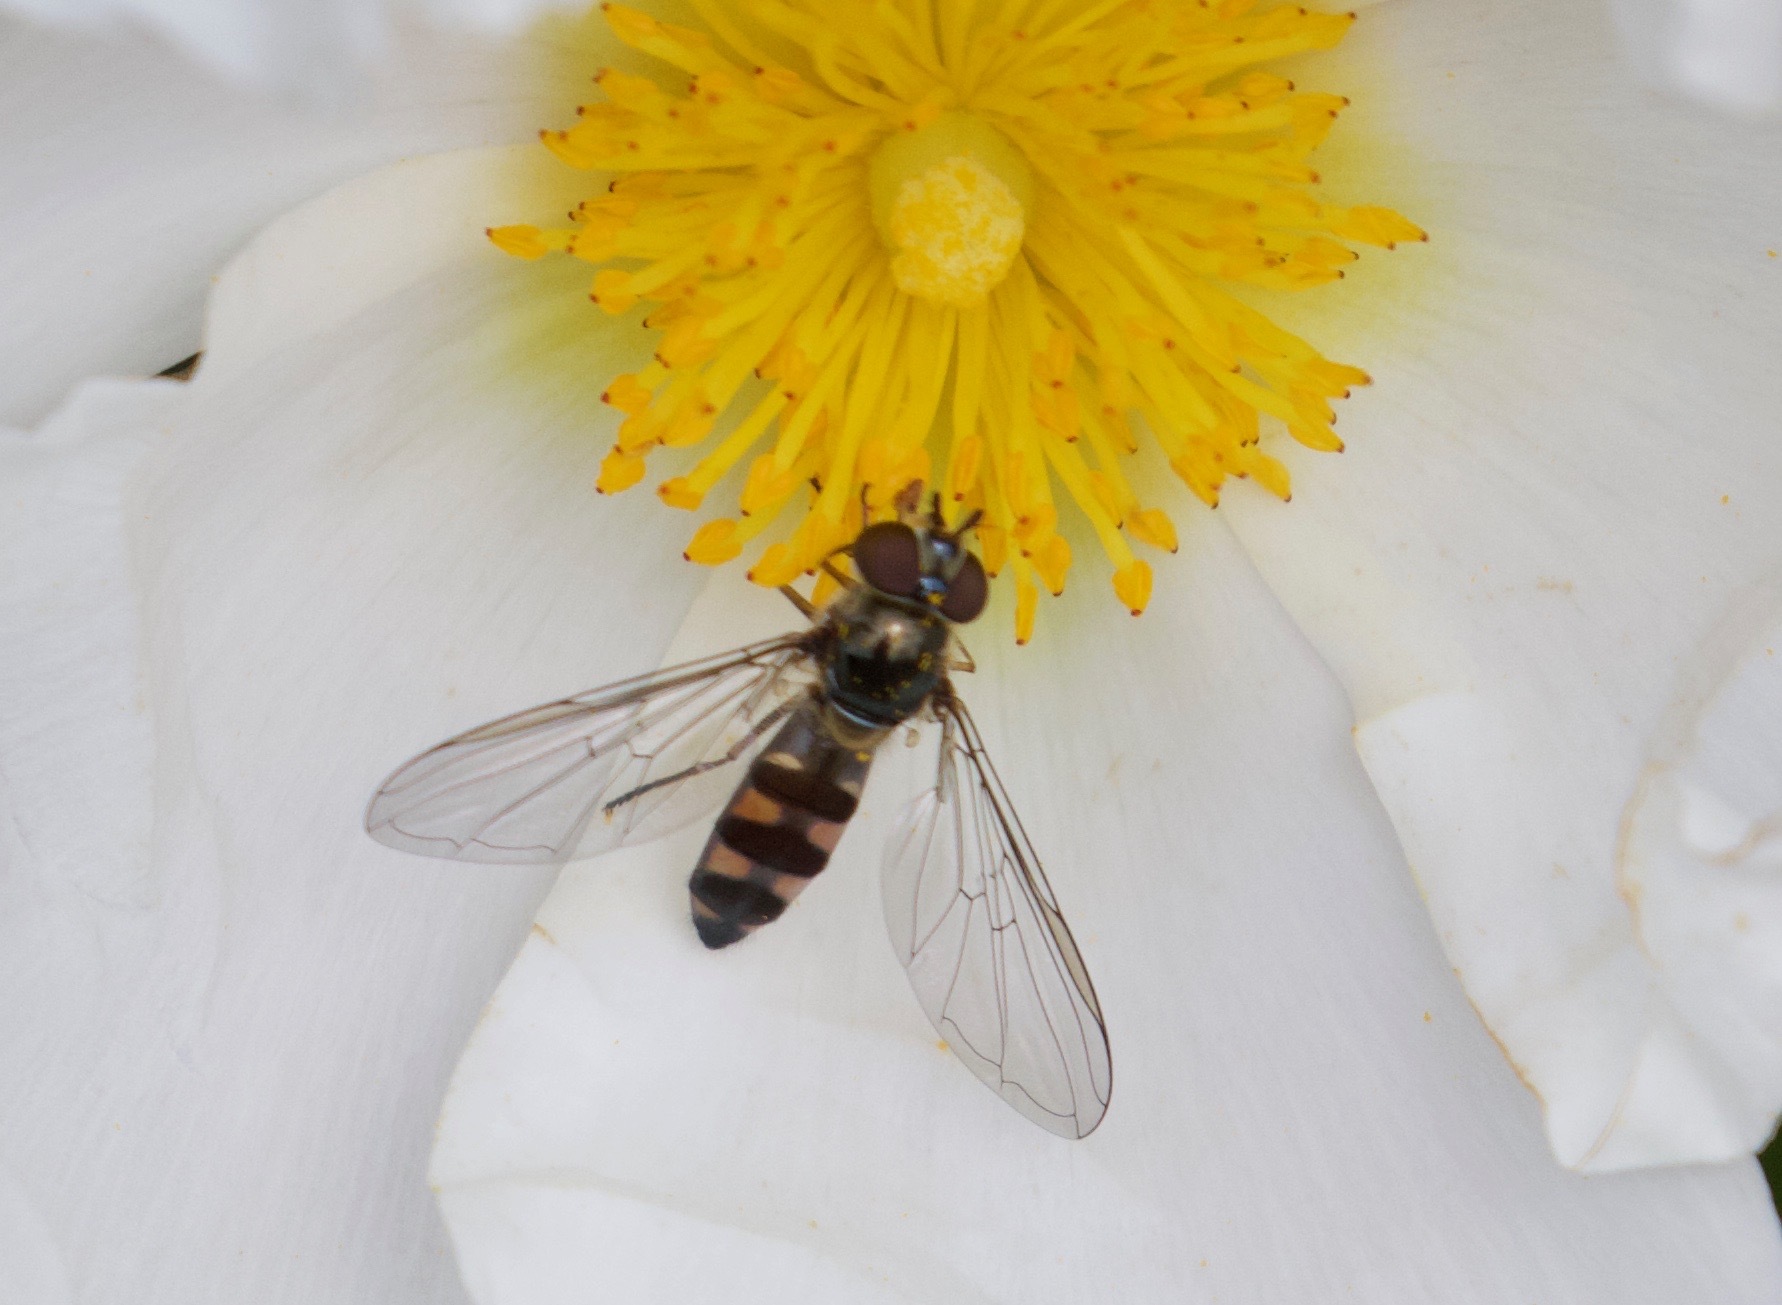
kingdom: Animalia
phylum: Arthropoda
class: Insecta
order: Diptera
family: Syrphidae
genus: Meliscaeva
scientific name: Meliscaeva auricollis
